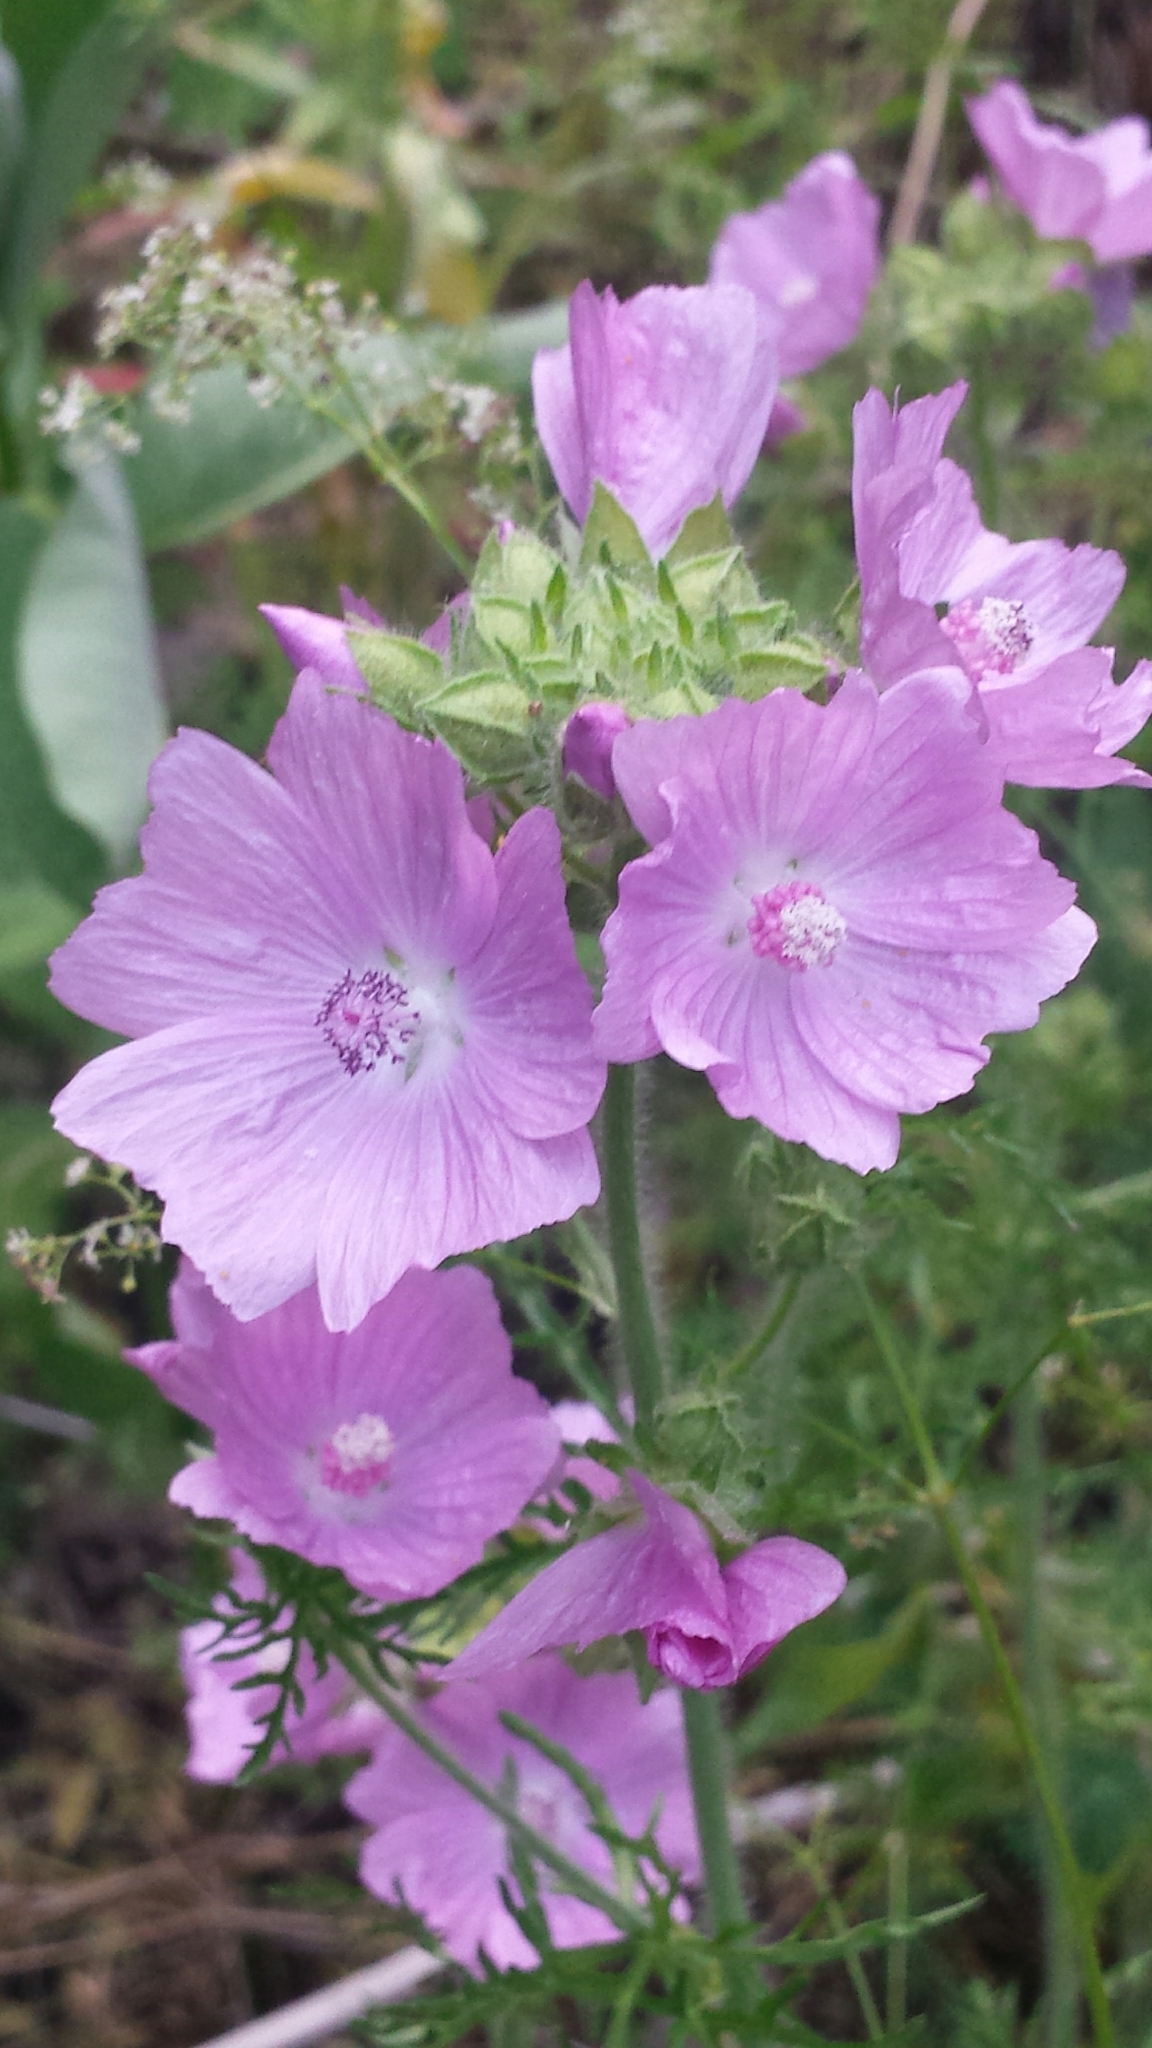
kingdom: Plantae
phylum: Tracheophyta
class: Magnoliopsida
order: Malvales
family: Malvaceae
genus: Malva
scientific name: Malva moschata
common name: Musk mallow
